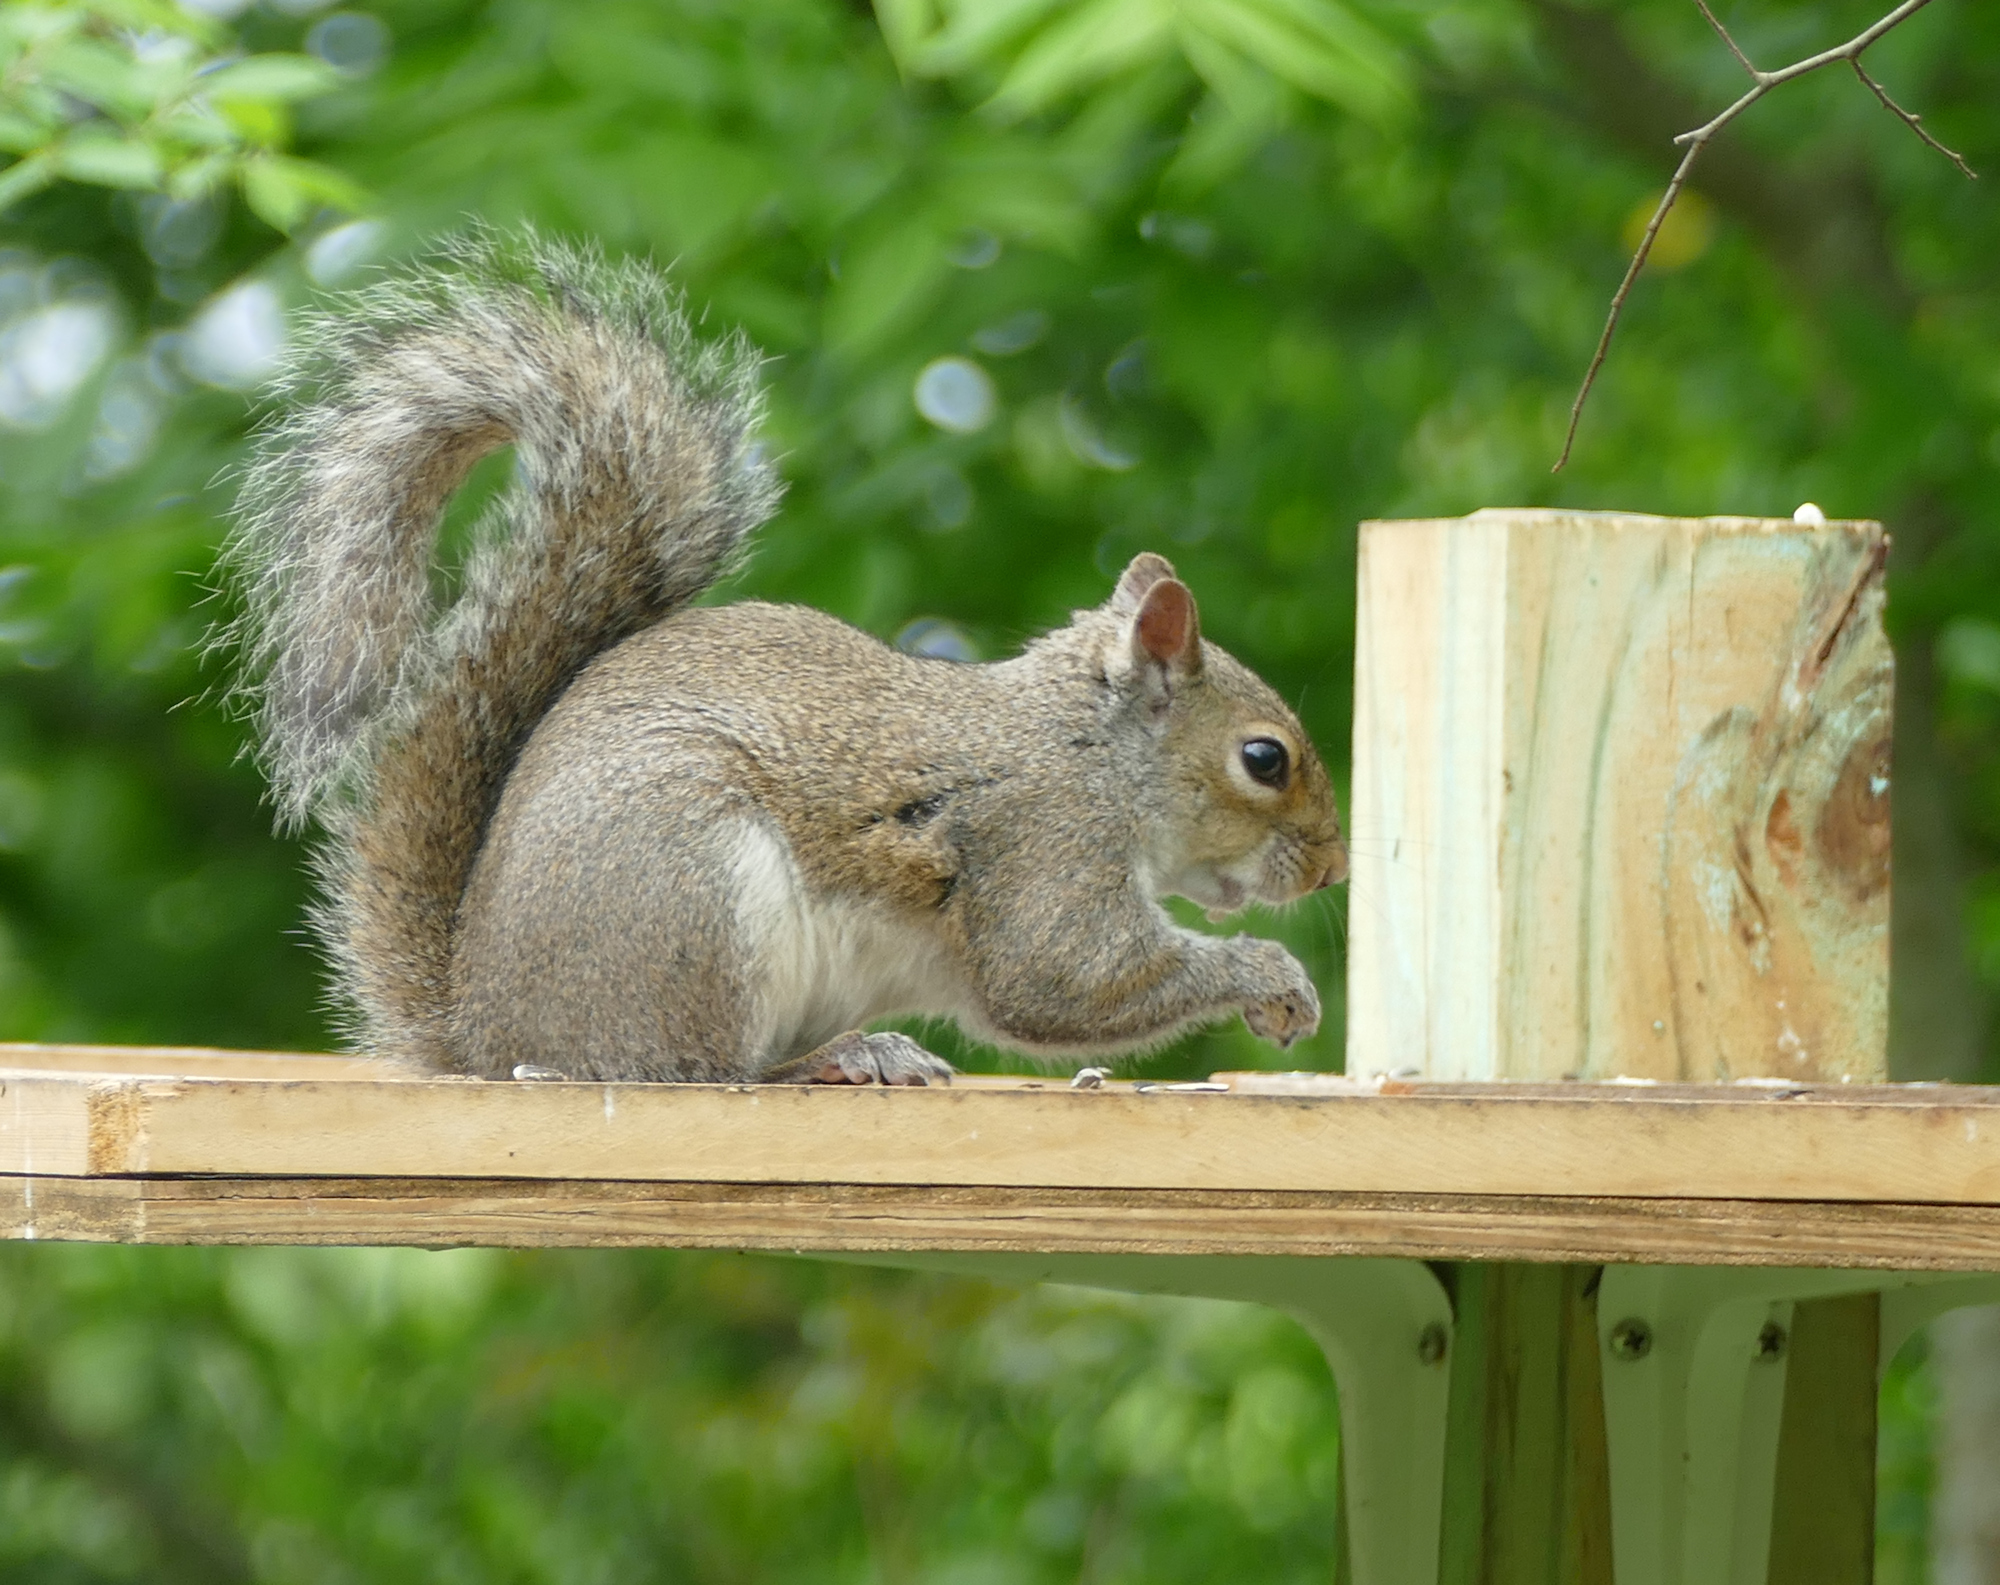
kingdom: Animalia
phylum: Chordata
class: Mammalia
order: Rodentia
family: Sciuridae
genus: Sciurus
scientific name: Sciurus carolinensis
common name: Eastern gray squirrel
